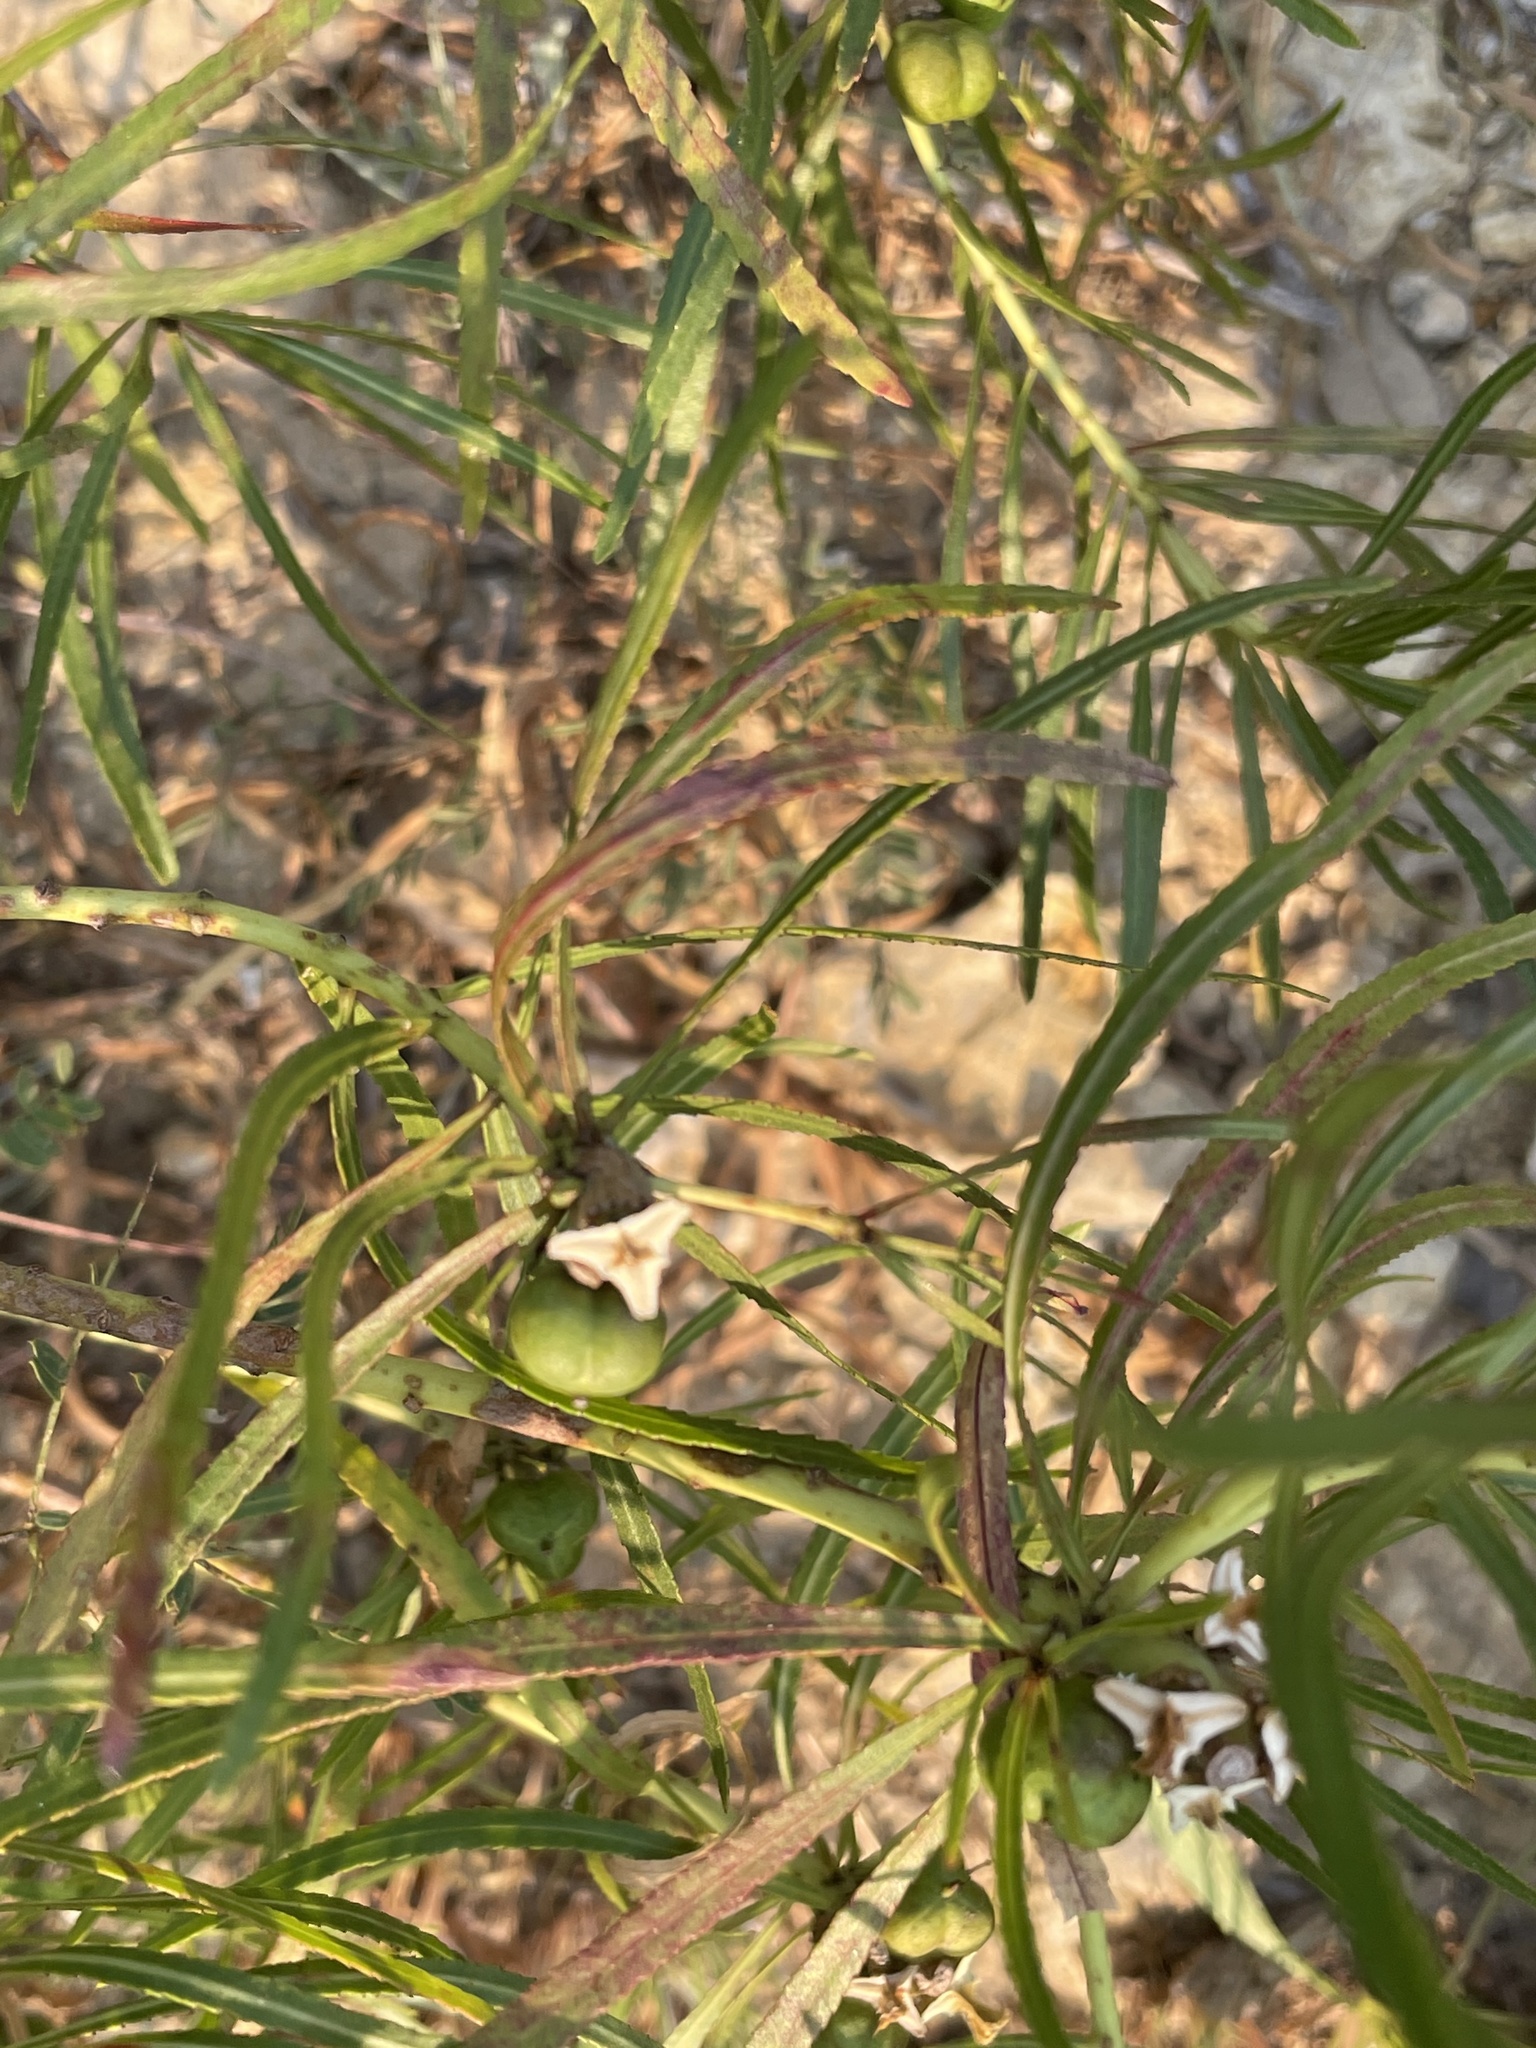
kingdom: Plantae
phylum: Tracheophyta
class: Magnoliopsida
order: Malpighiales
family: Euphorbiaceae
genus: Stillingia
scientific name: Stillingia texana
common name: Texas stillingia
